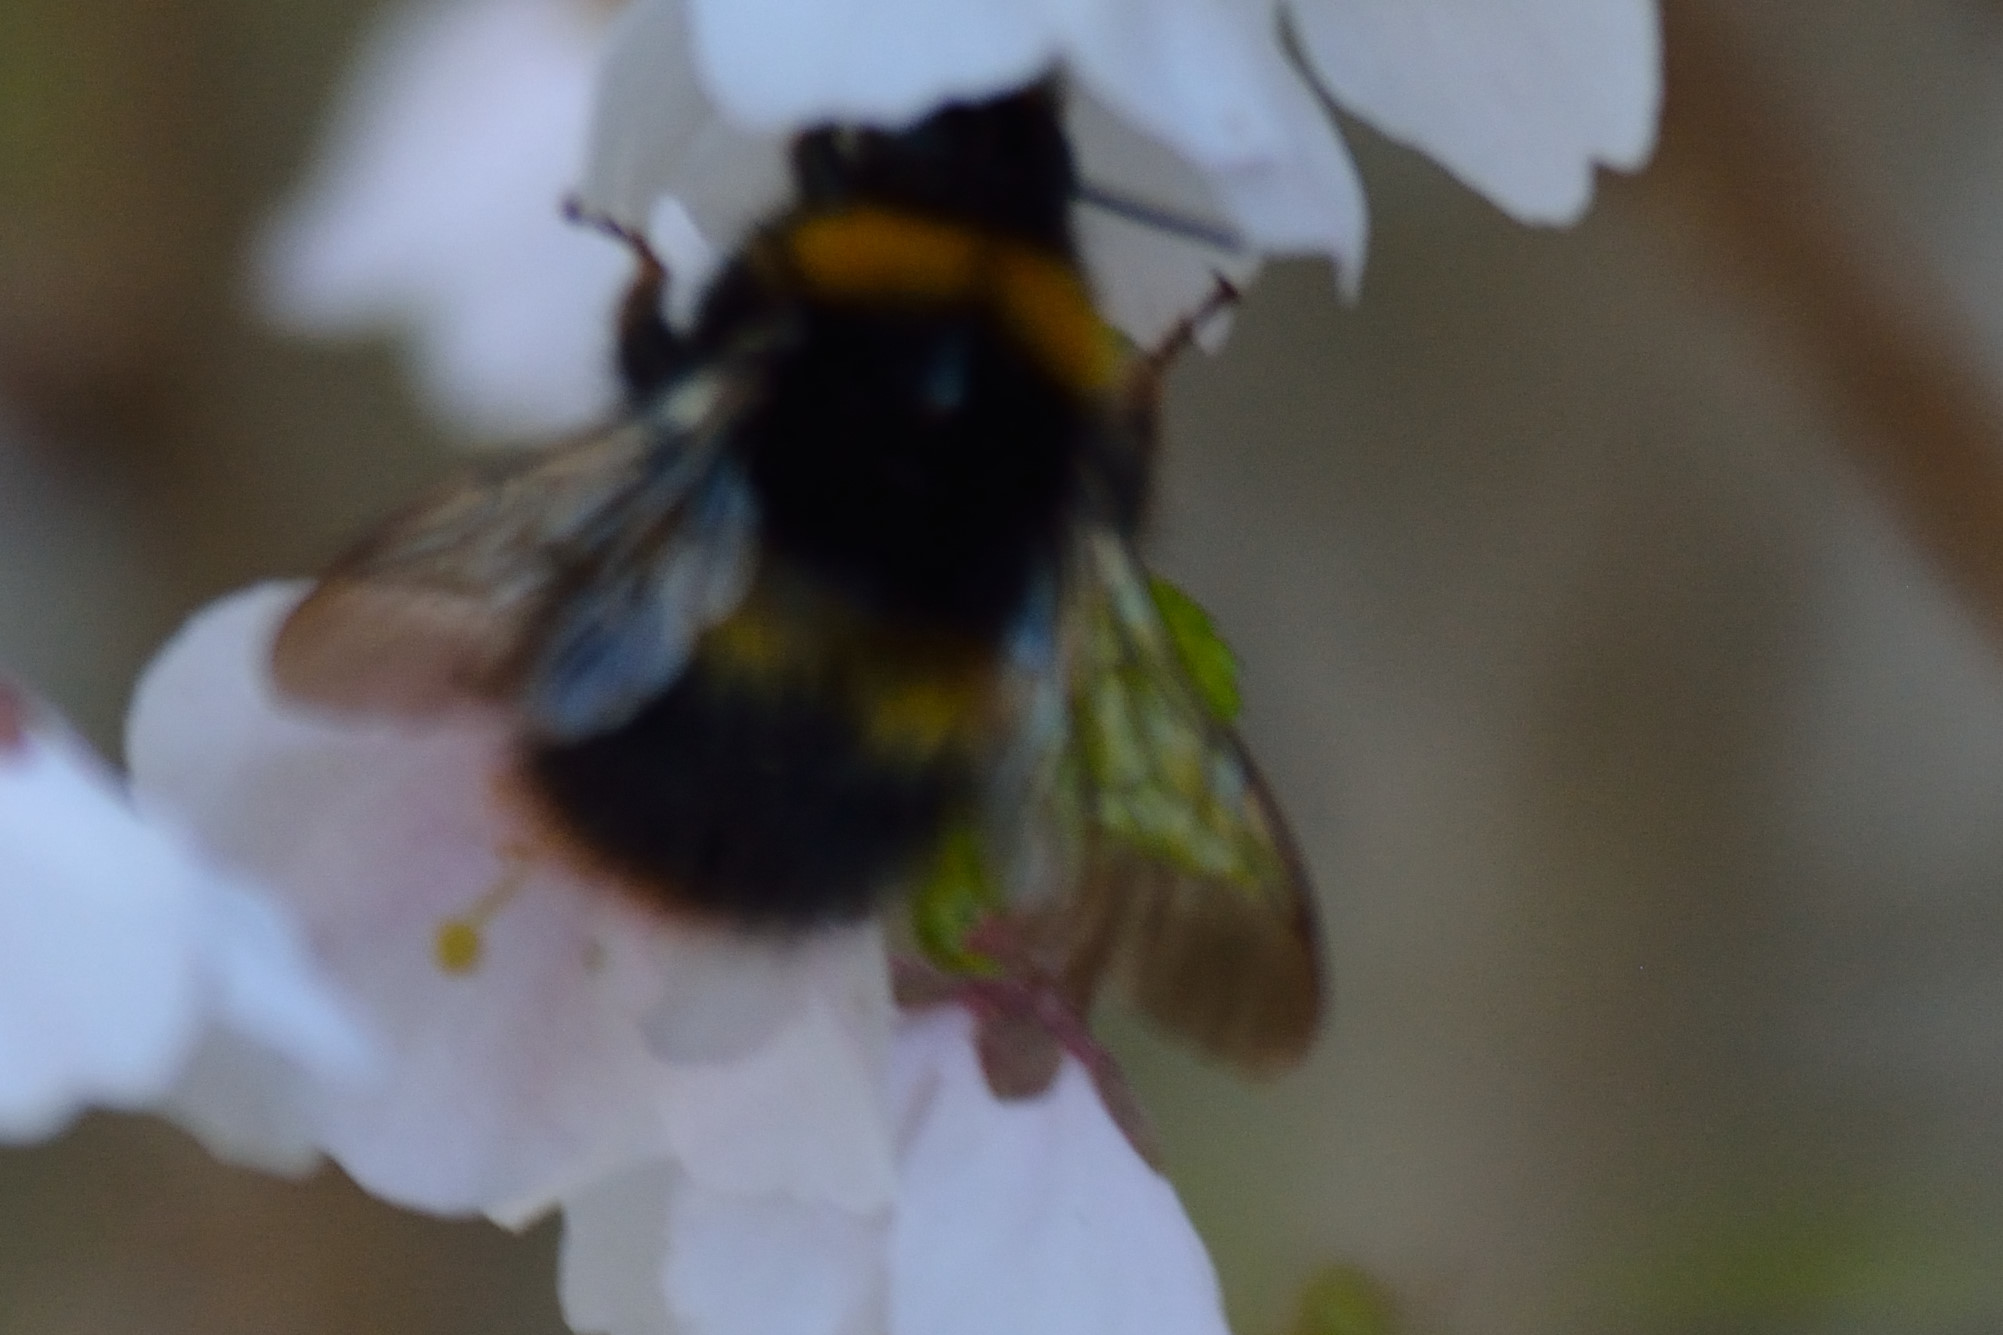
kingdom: Animalia
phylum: Arthropoda
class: Insecta
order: Hymenoptera
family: Apidae
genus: Bombus
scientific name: Bombus pratorum
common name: Early humble-bee
